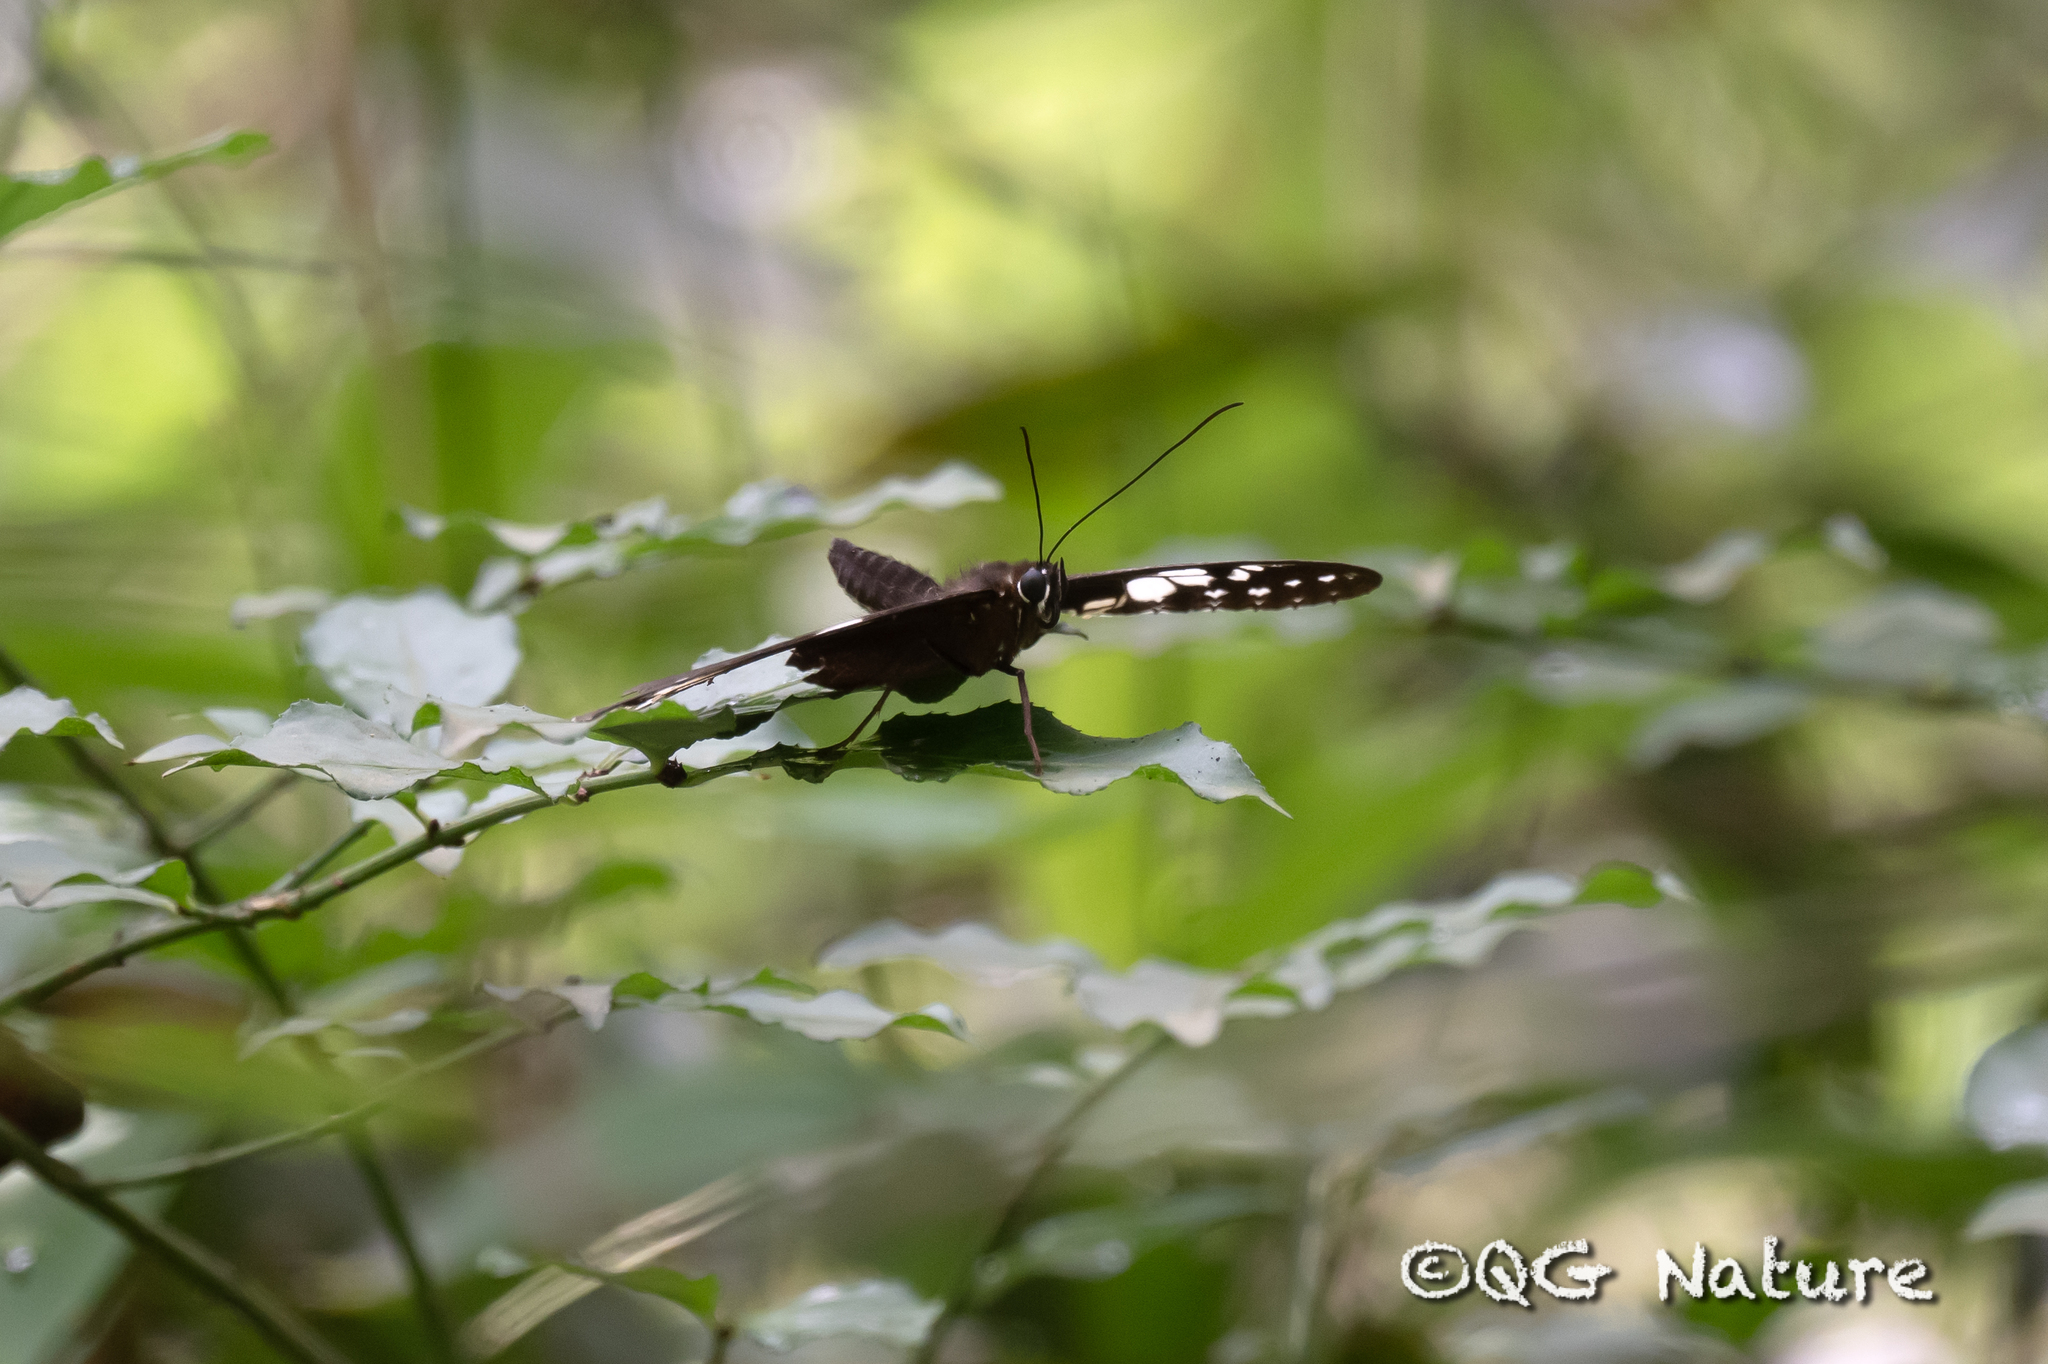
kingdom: Animalia
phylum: Arthropoda
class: Insecta
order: Lepidoptera
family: Nymphalidae
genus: Penthema
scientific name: Penthema adelma
